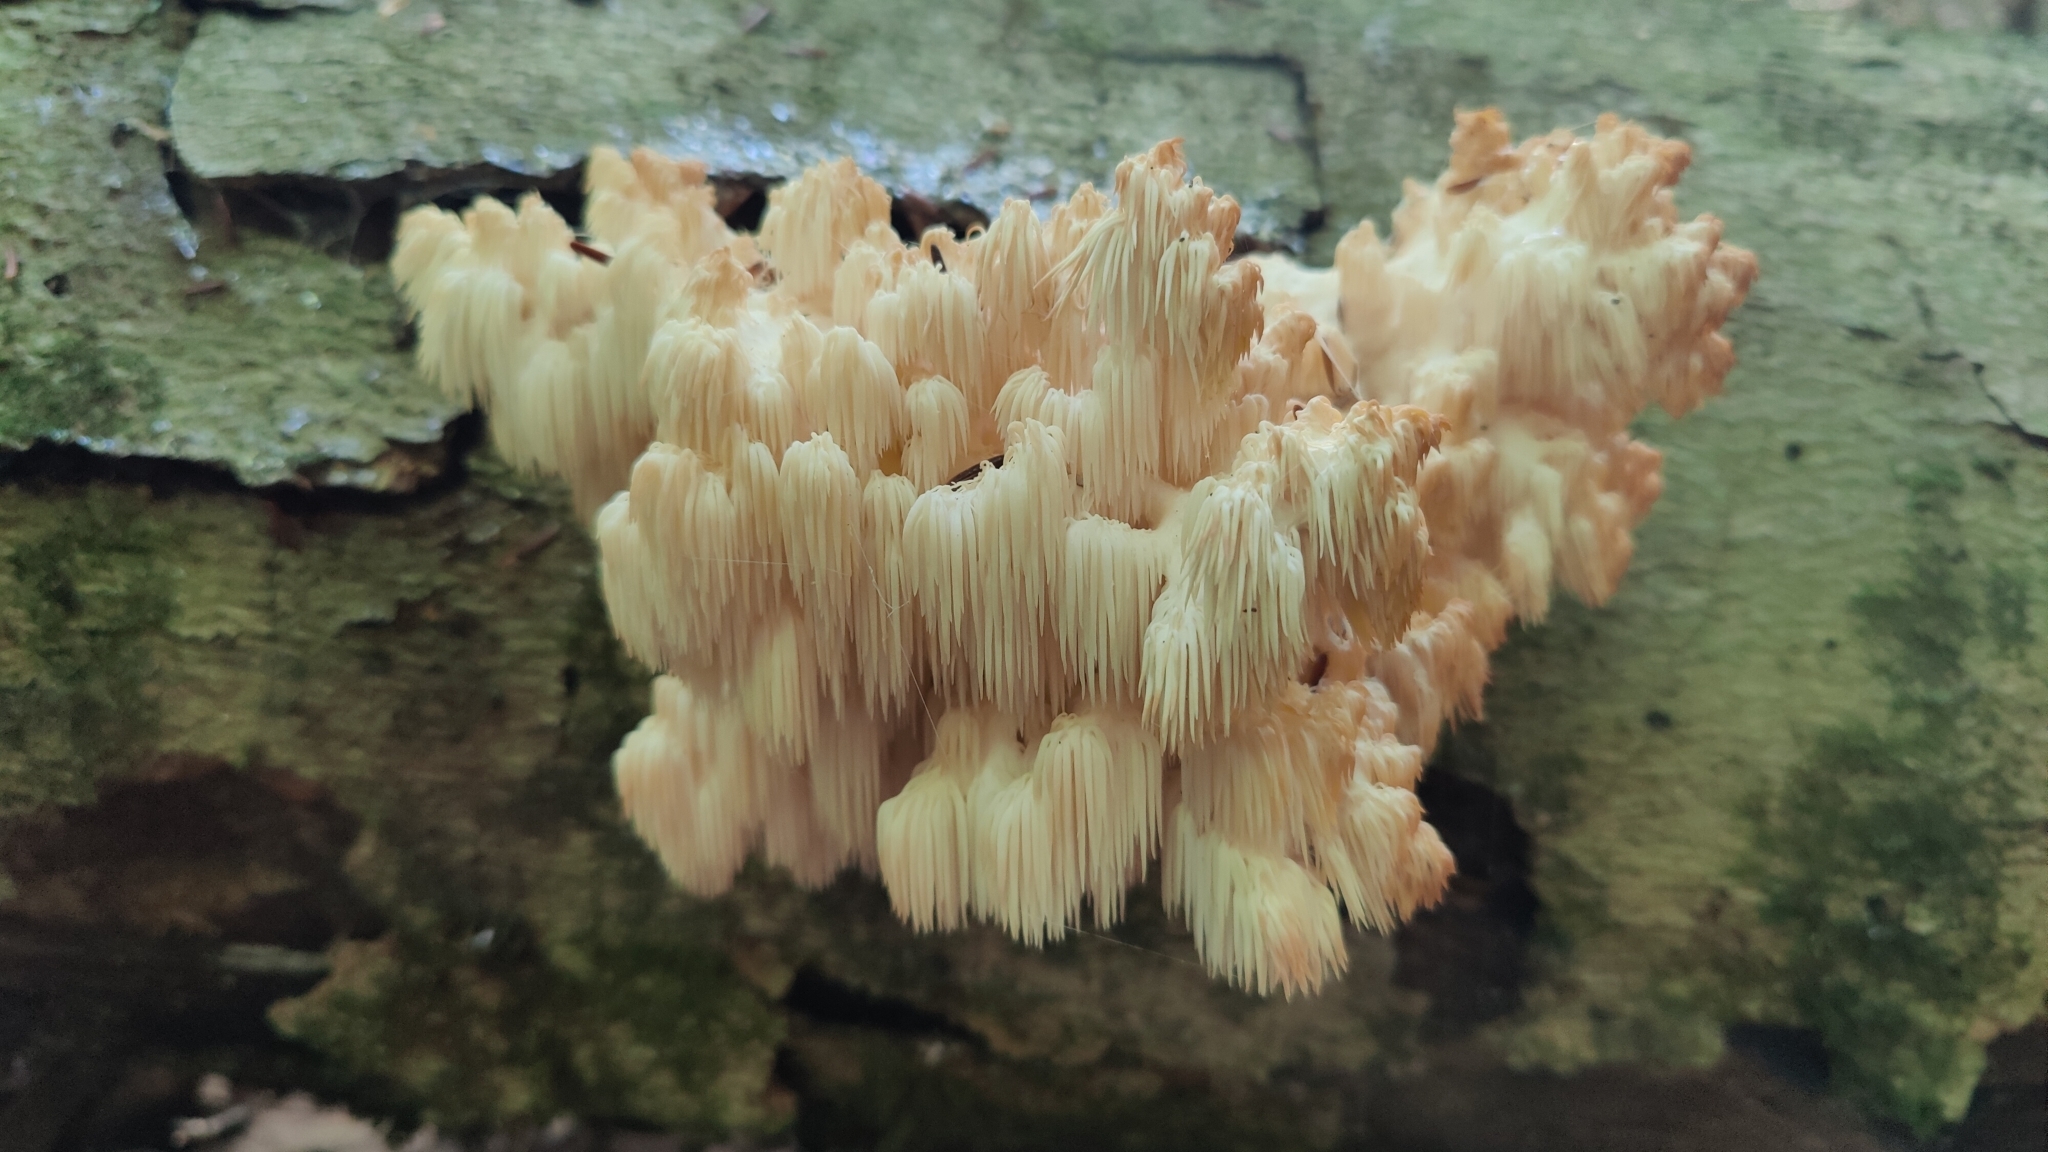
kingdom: Fungi
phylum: Basidiomycota
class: Agaricomycetes
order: Russulales
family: Hericiaceae
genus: Hericium
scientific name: Hericium americanum
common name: Bear's head tooth
